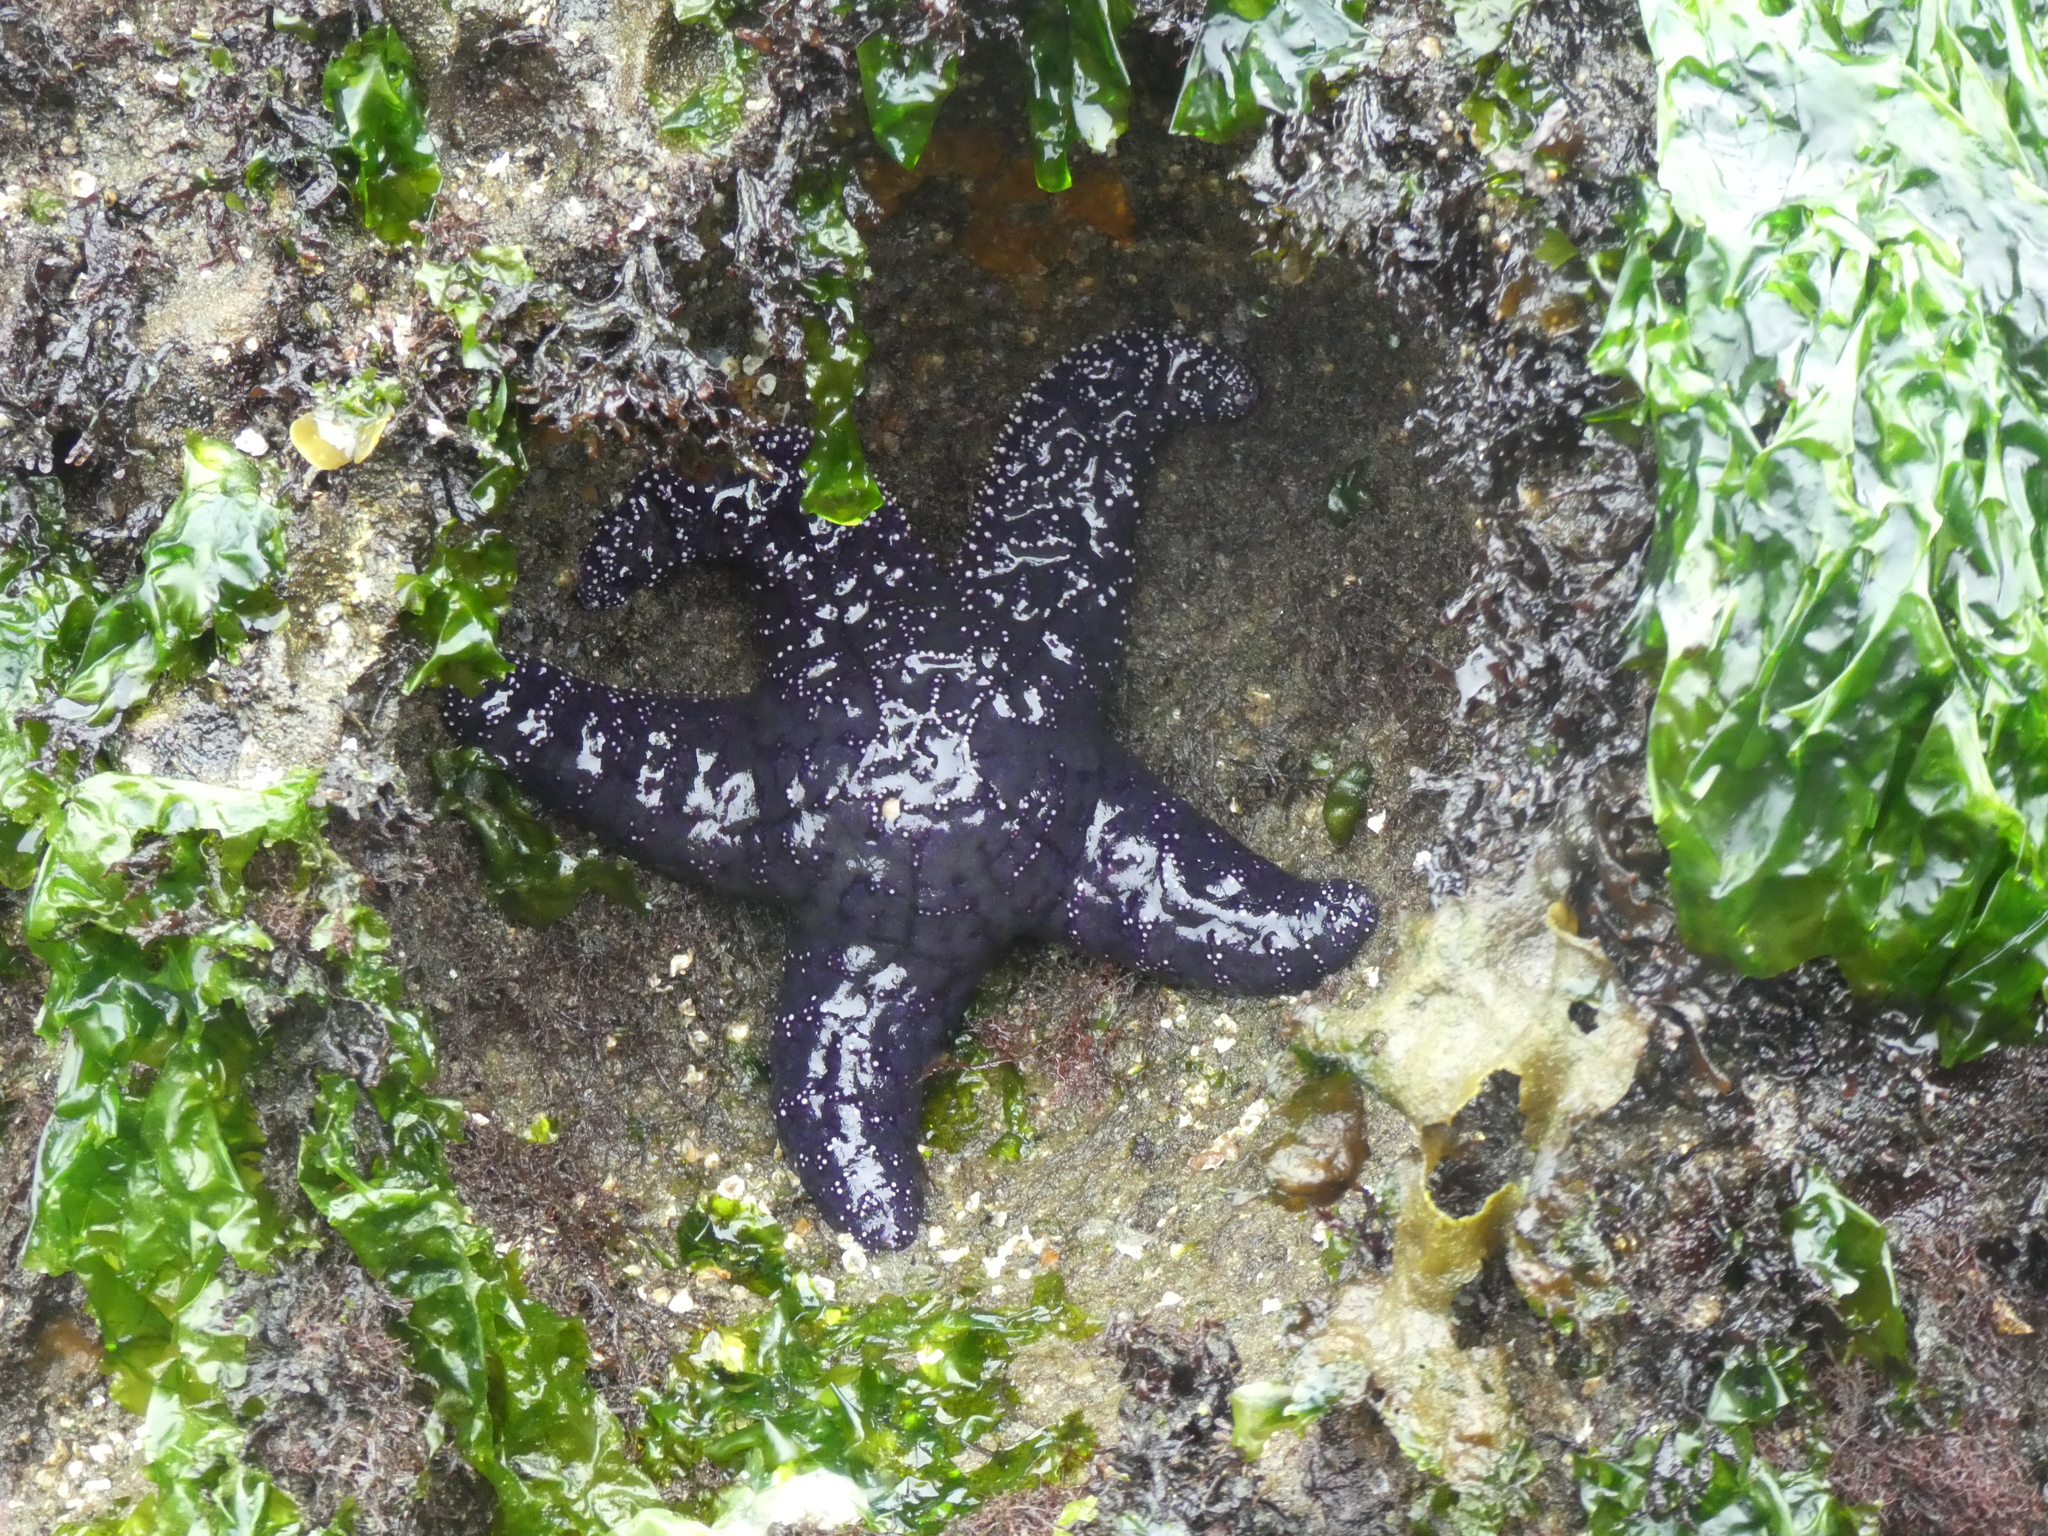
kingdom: Animalia
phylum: Echinodermata
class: Asteroidea
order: Forcipulatida
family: Asteriidae
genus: Pisaster
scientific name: Pisaster ochraceus
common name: Ochre stars
